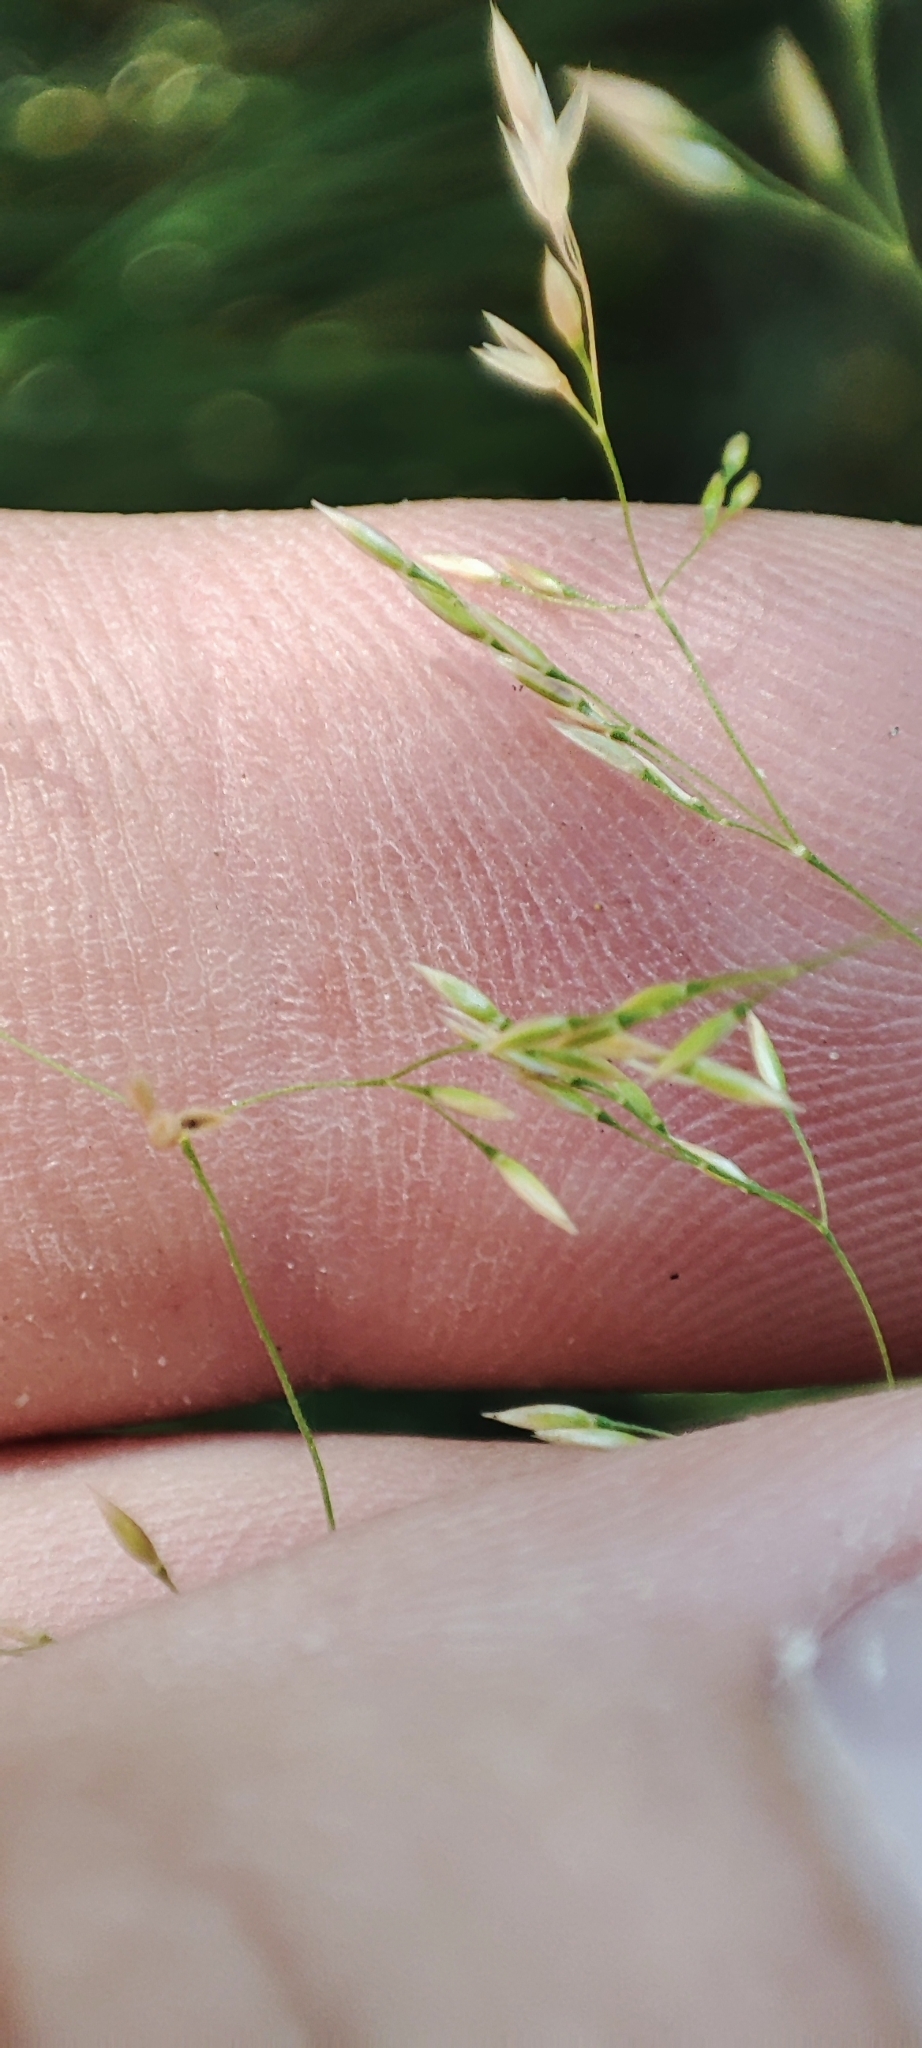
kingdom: Plantae
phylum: Tracheophyta
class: Liliopsida
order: Poales
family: Poaceae
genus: Agrostis
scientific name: Agrostis gigantea
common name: Black bent
